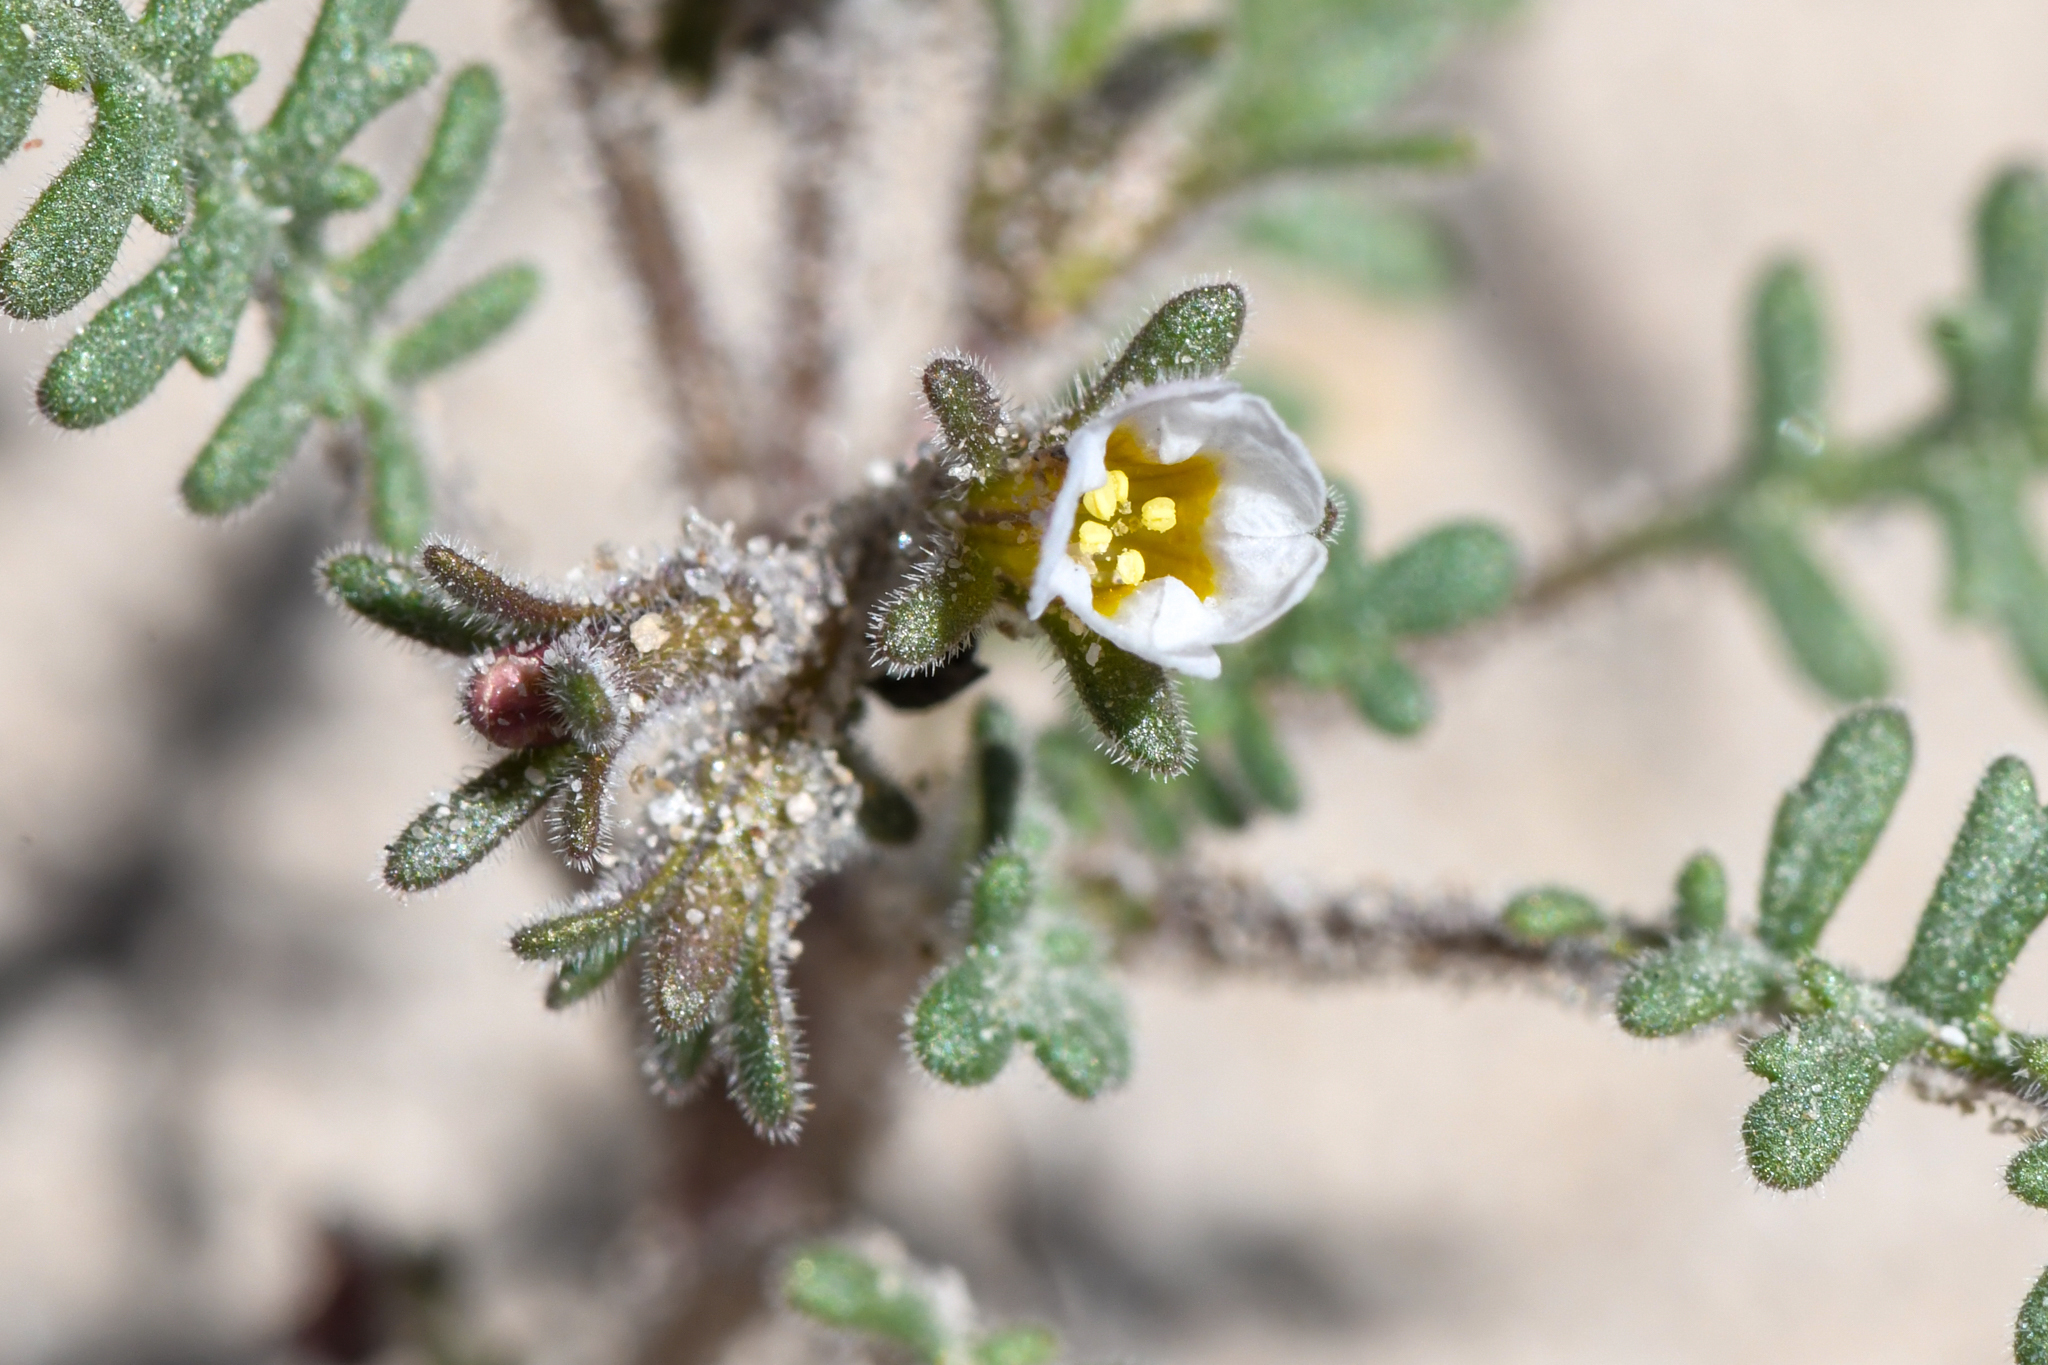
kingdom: Plantae
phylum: Tracheophyta
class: Magnoliopsida
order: Boraginales
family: Hydrophyllaceae
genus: Phacelia
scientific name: Phacelia glandulifera
